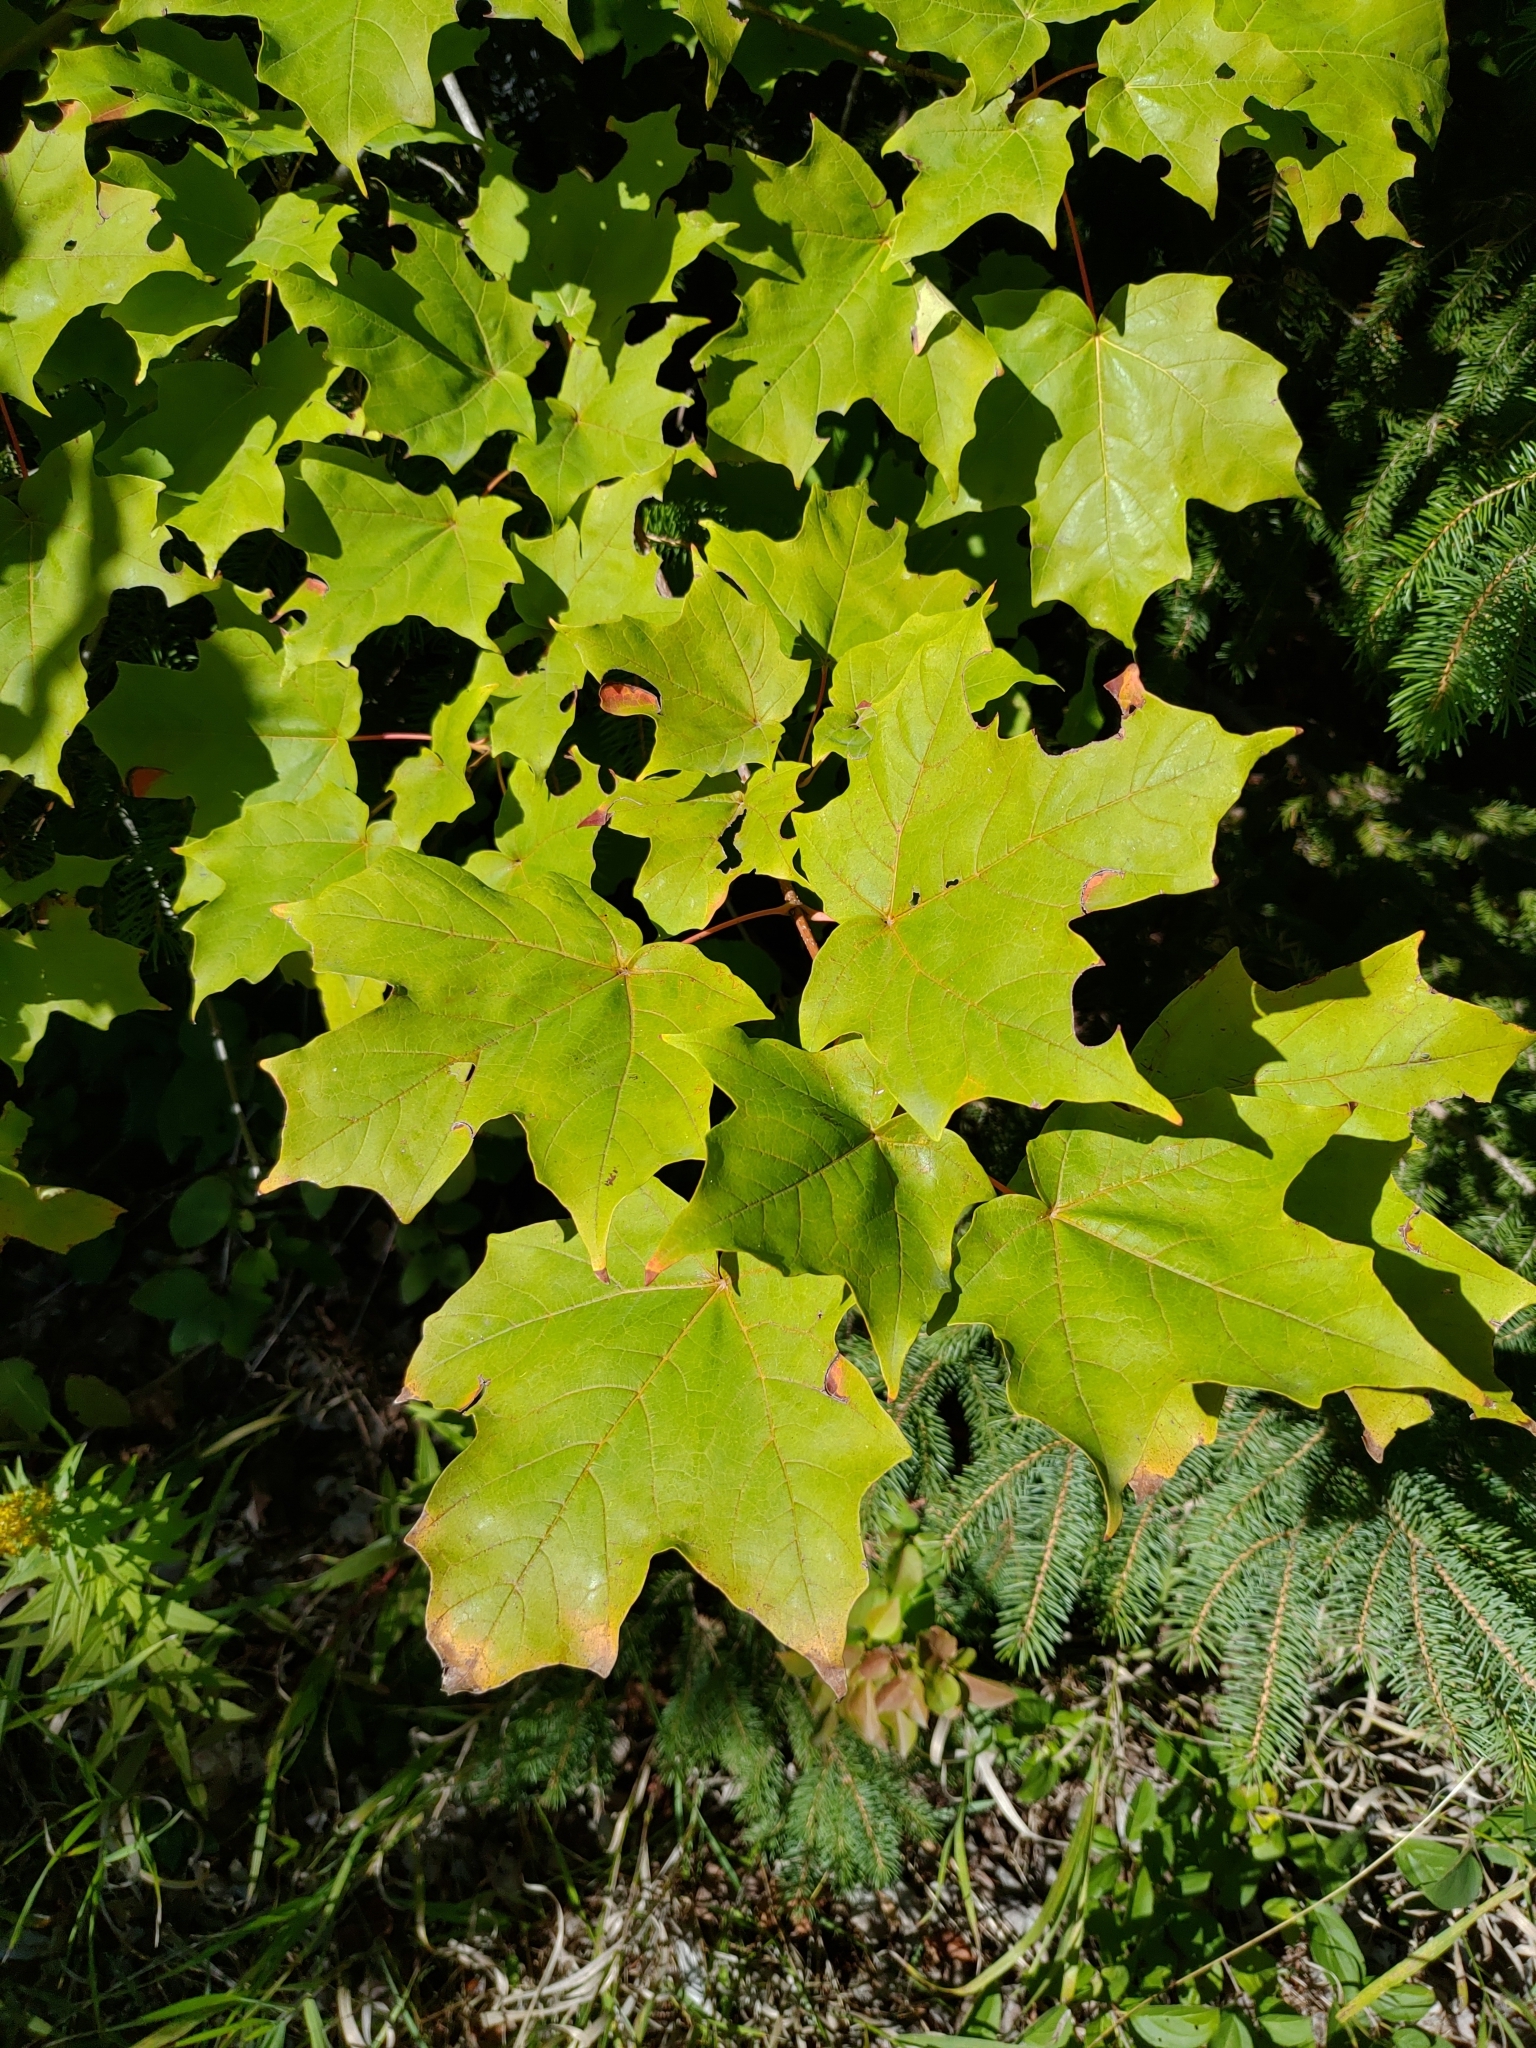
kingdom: Plantae
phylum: Tracheophyta
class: Magnoliopsida
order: Sapindales
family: Sapindaceae
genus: Acer
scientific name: Acer saccharum
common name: Sugar maple
